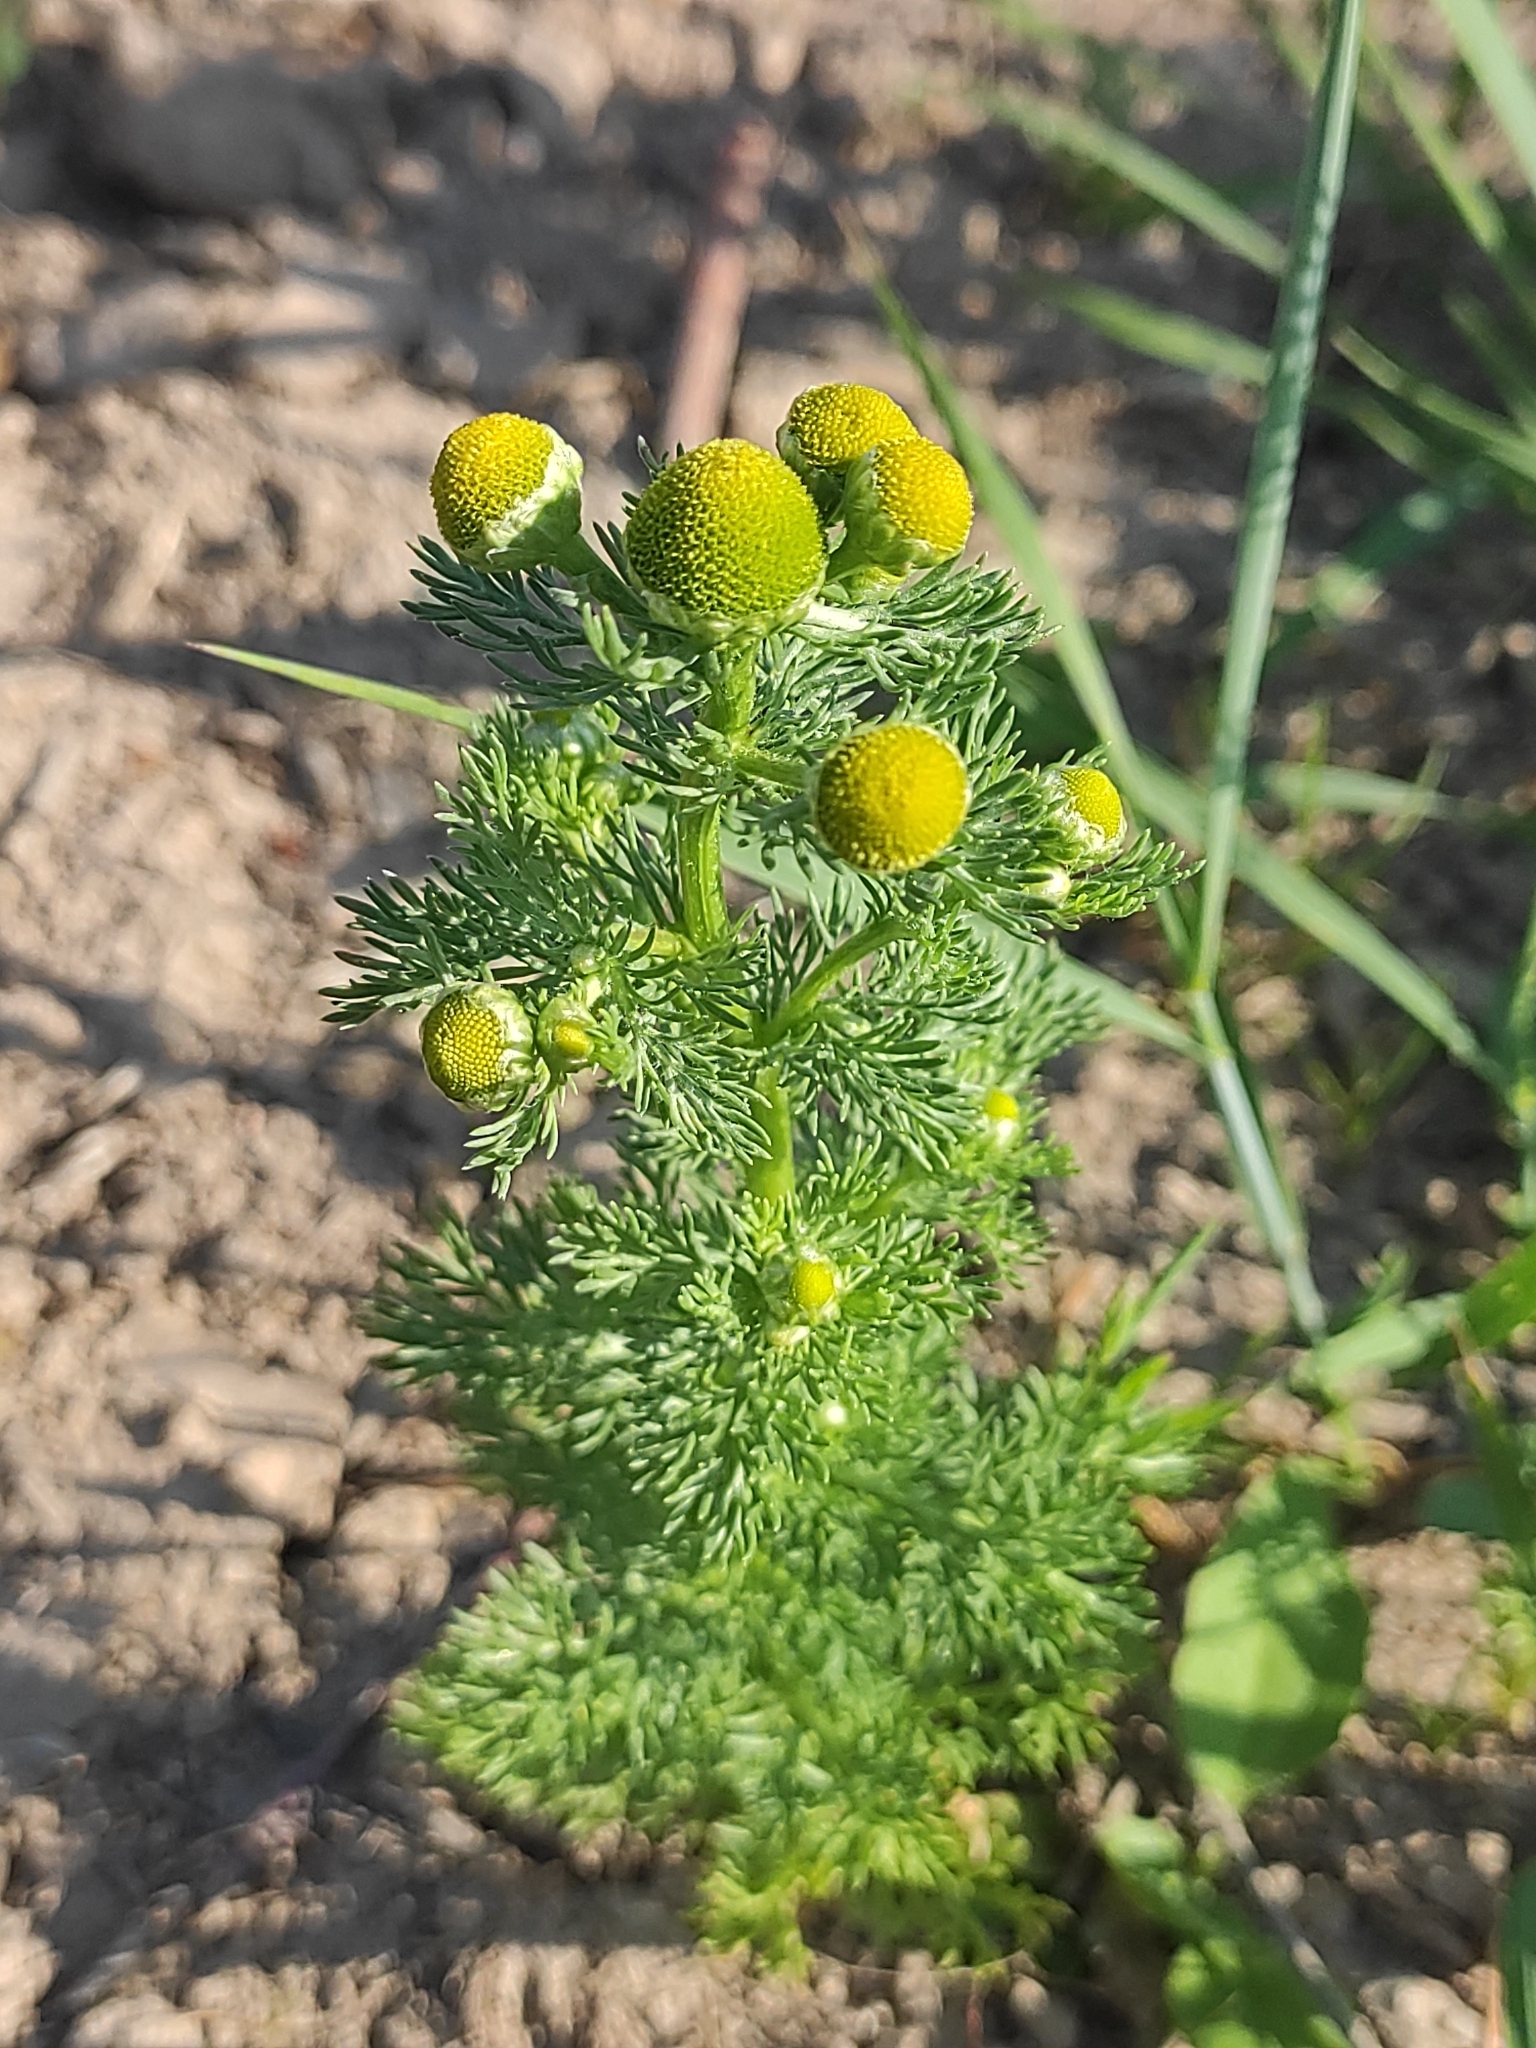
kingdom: Plantae
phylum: Tracheophyta
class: Magnoliopsida
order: Asterales
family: Asteraceae
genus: Matricaria
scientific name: Matricaria discoidea
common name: Disc mayweed
